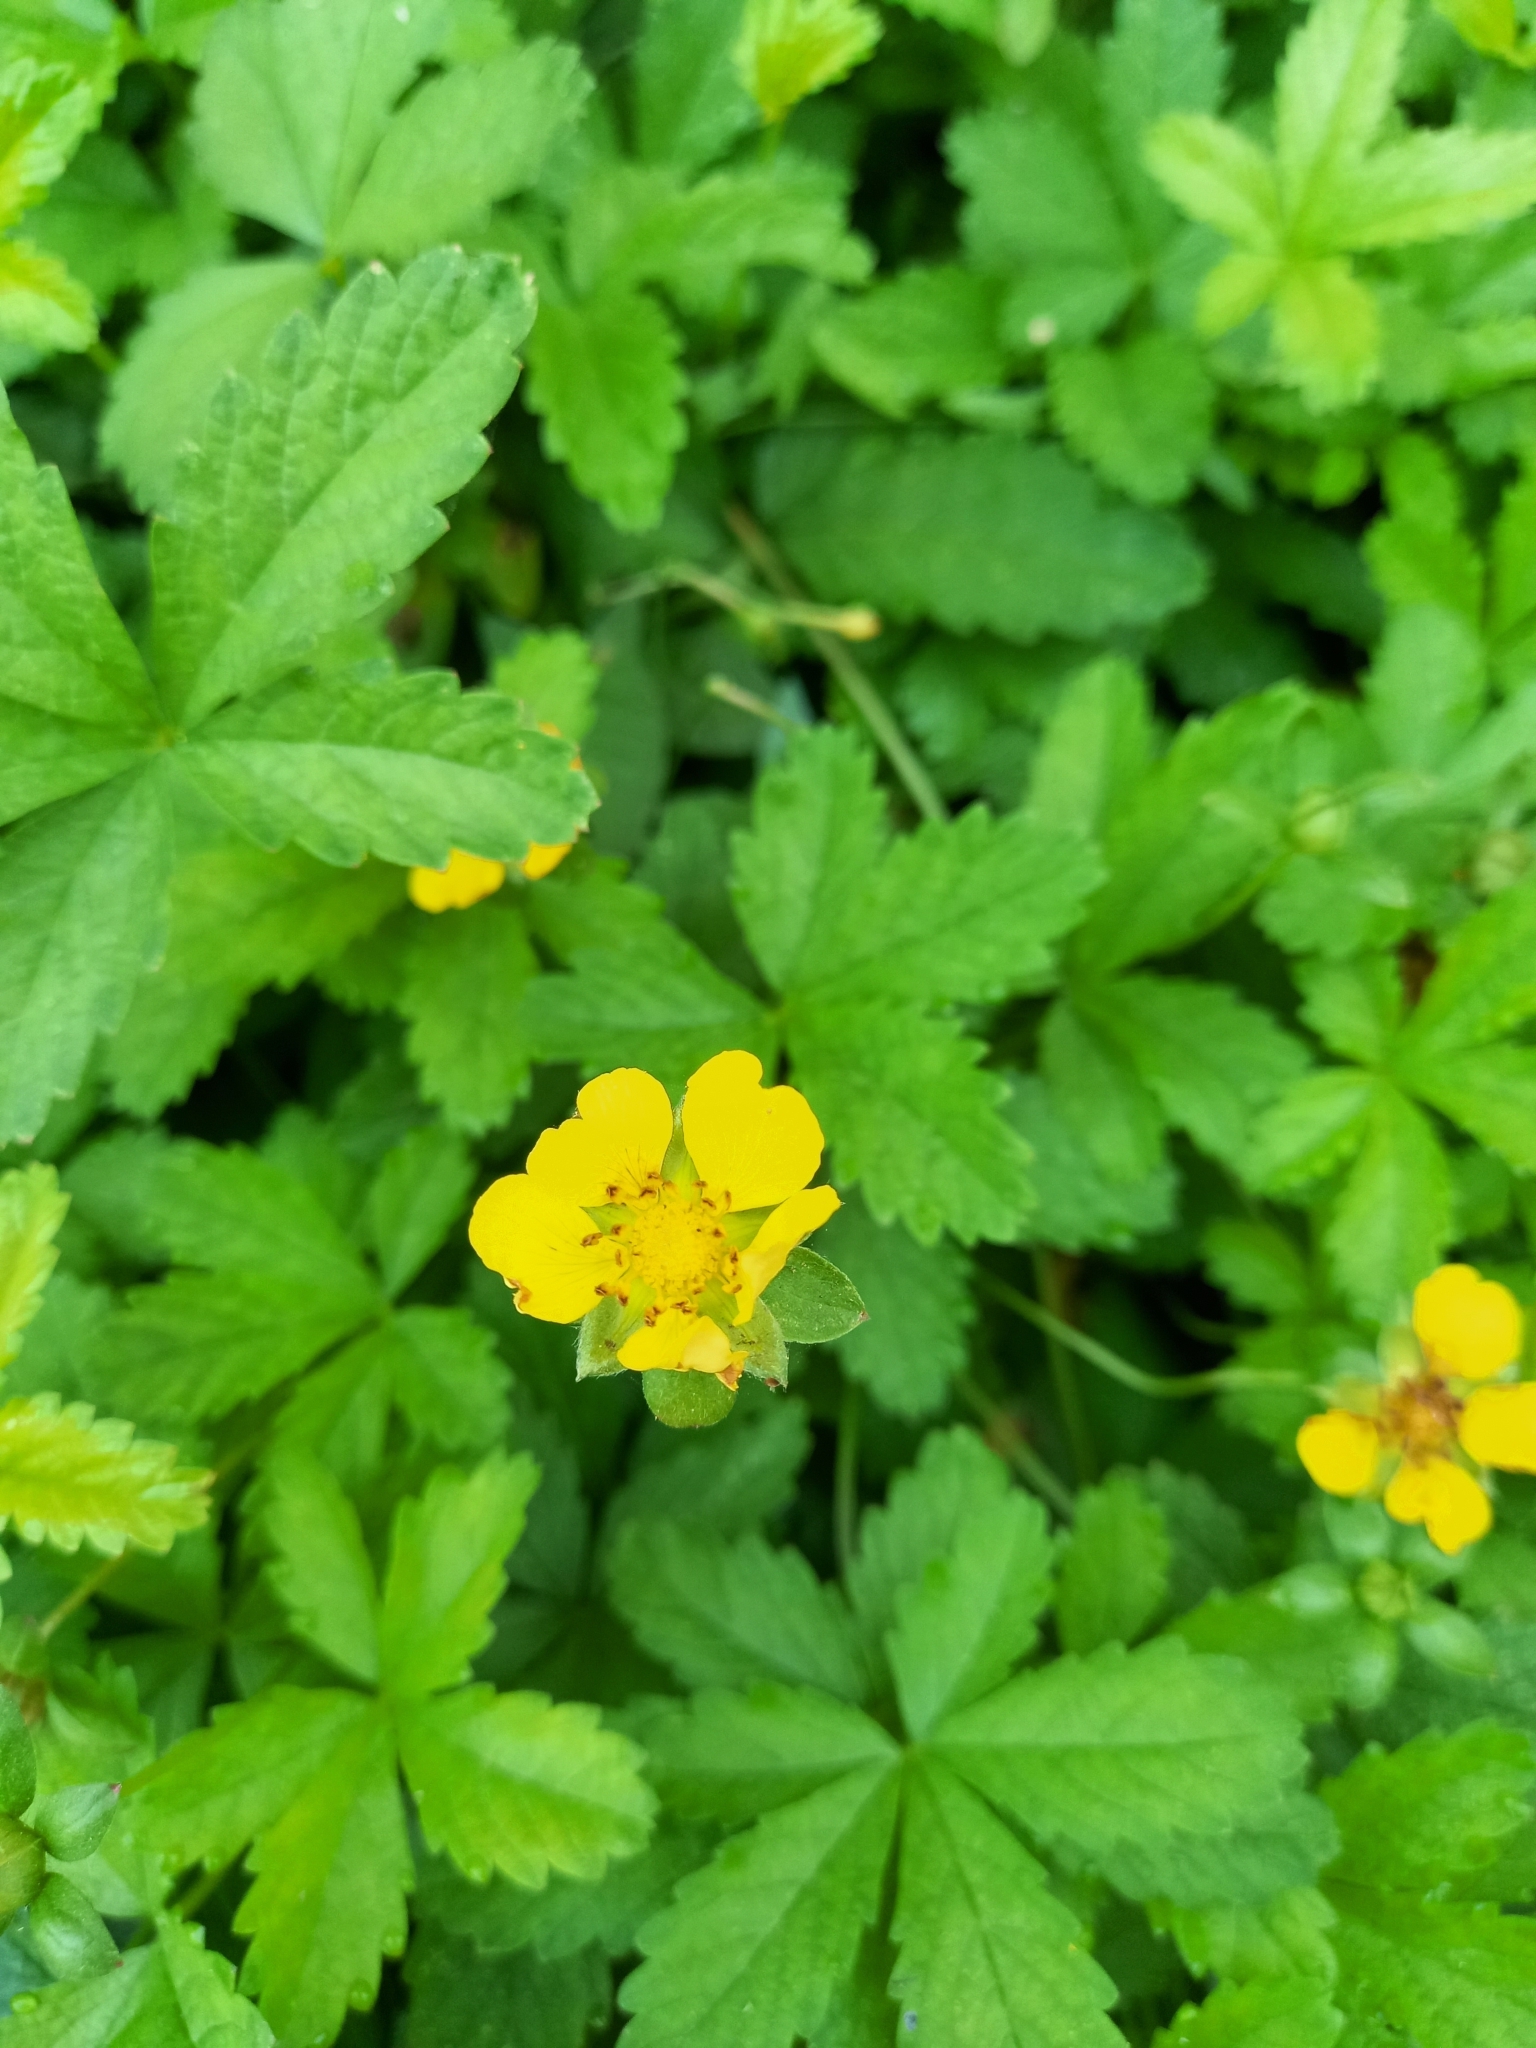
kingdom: Plantae
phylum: Tracheophyta
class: Magnoliopsida
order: Rosales
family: Rosaceae
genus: Potentilla
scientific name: Potentilla reptans
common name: Creeping cinquefoil
